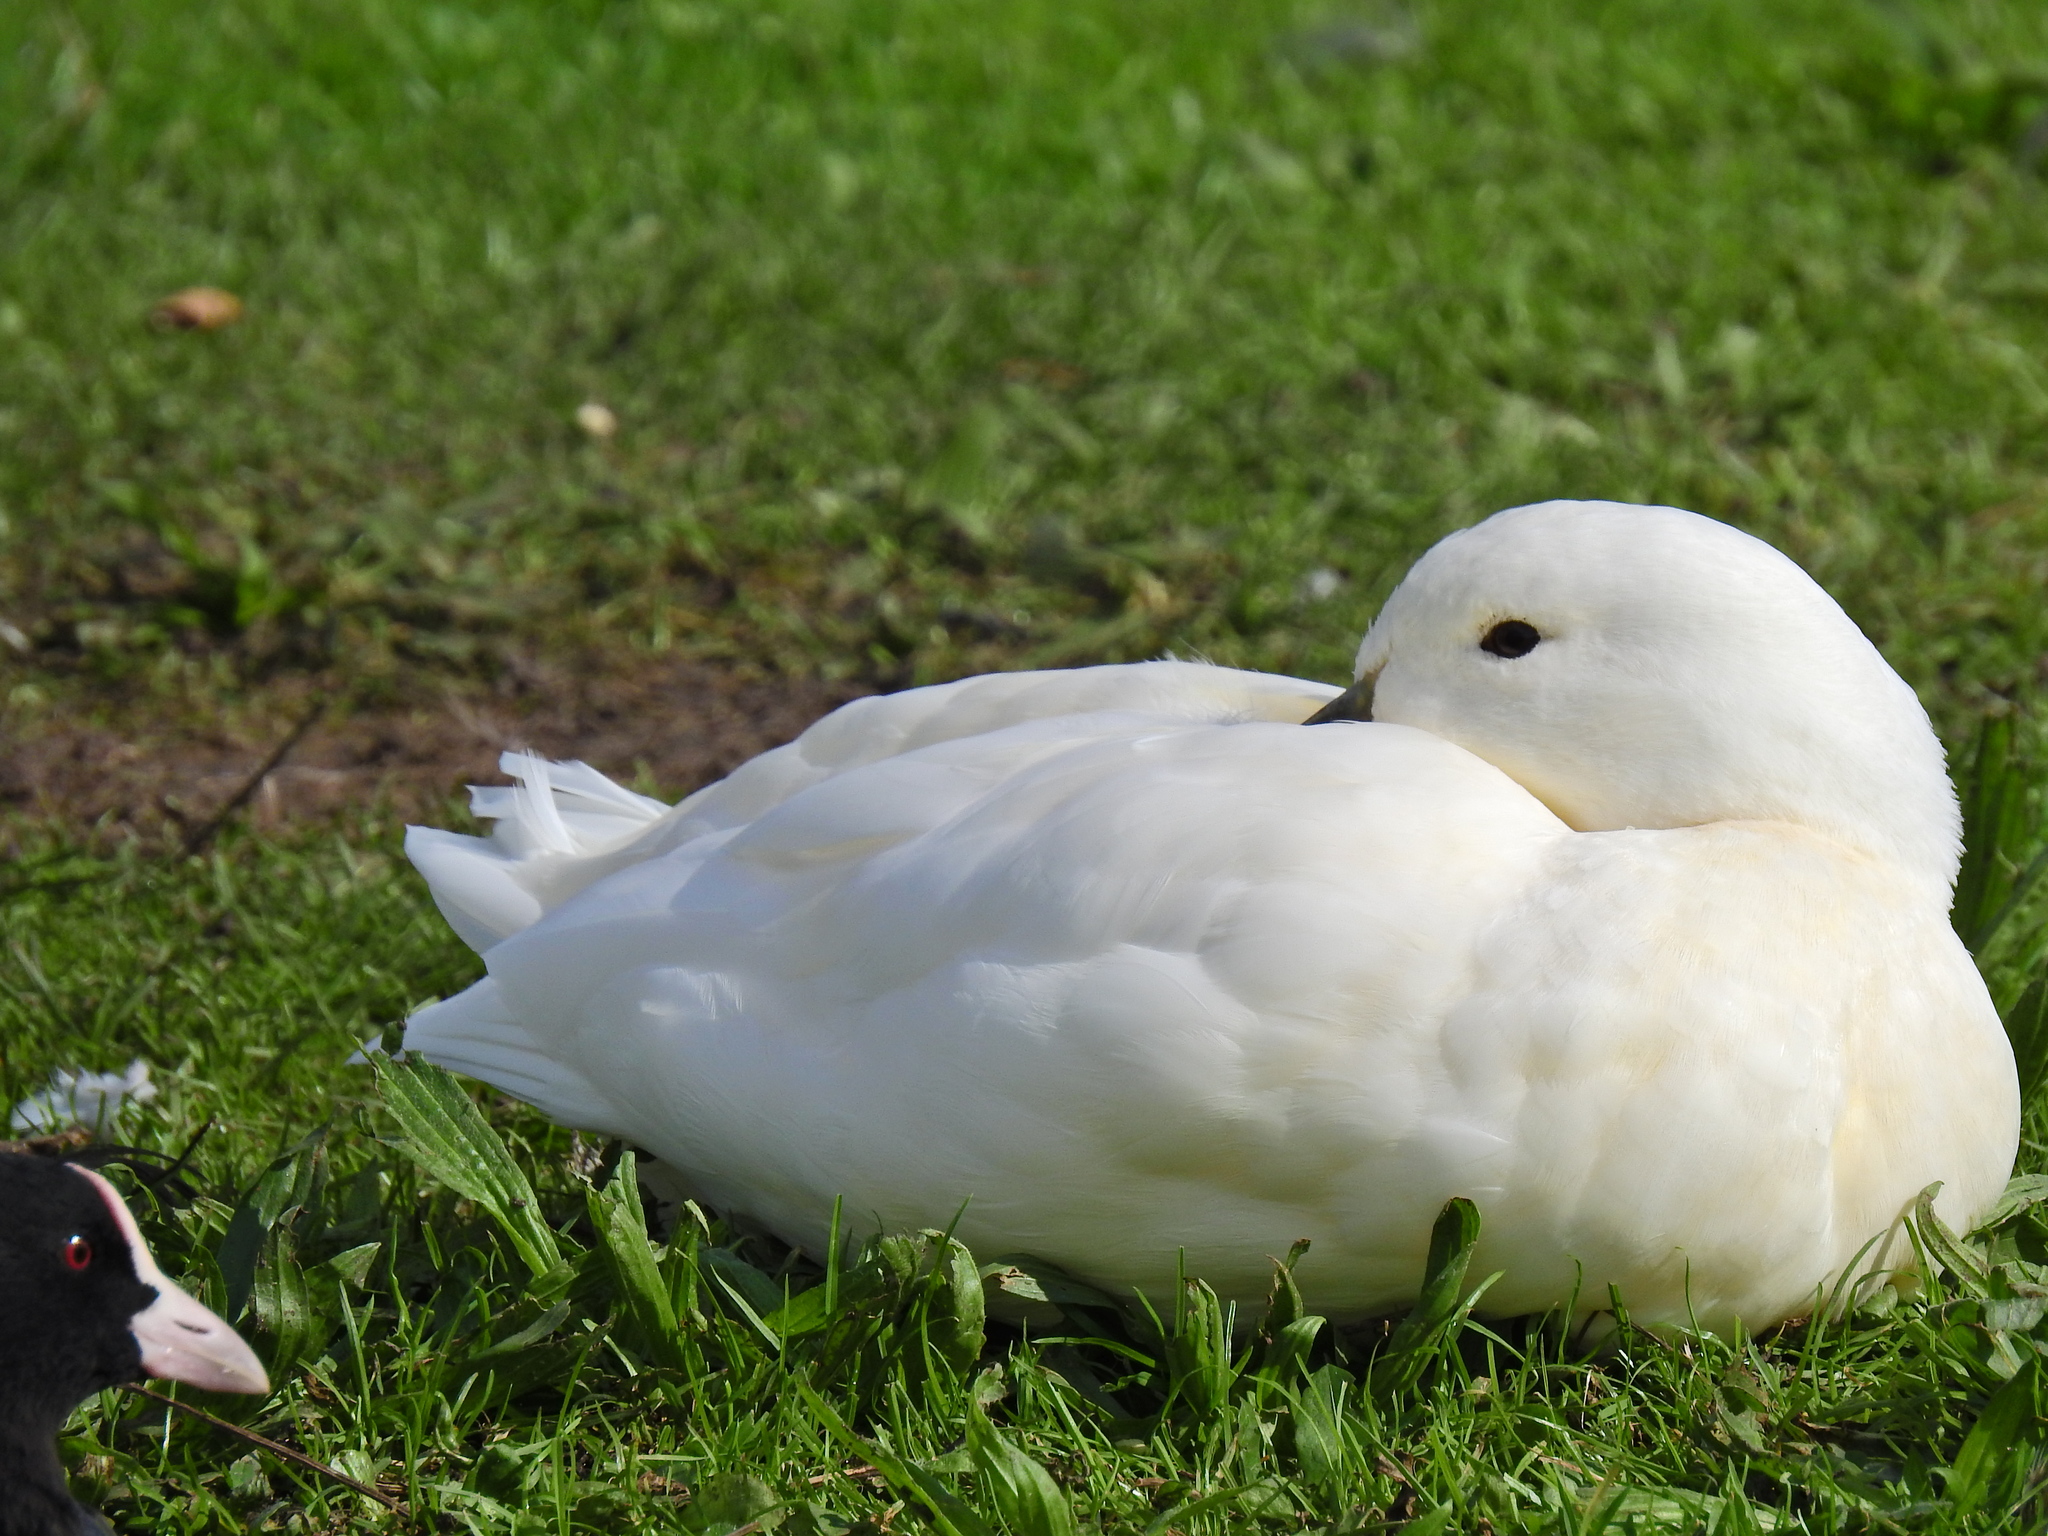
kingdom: Animalia
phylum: Chordata
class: Aves
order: Anseriformes
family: Anatidae
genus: Anas
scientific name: Anas platyrhynchos
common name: Mallard
